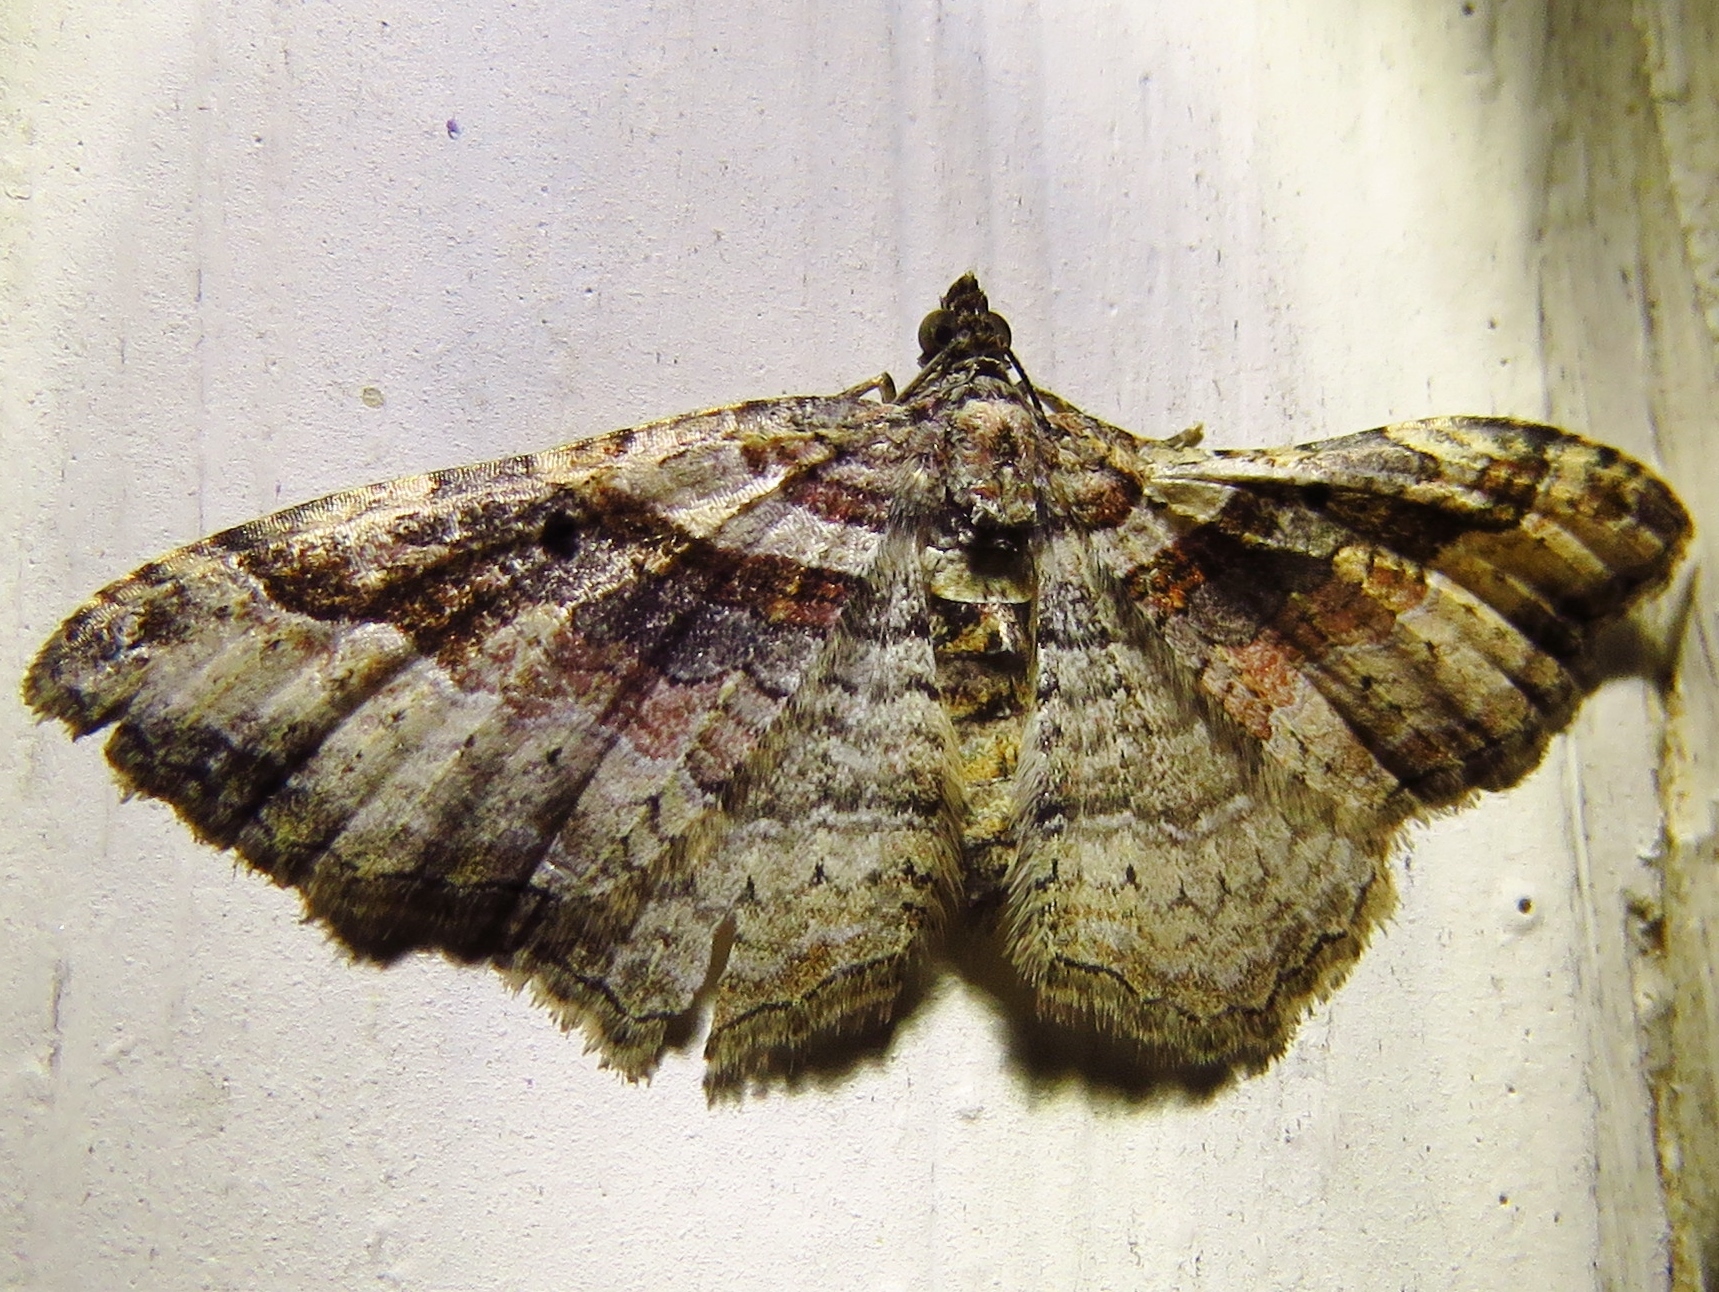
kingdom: Animalia
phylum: Arthropoda
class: Insecta
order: Lepidoptera
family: Geometridae
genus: Costaconvexa
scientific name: Costaconvexa centrostrigaria
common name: Bent-line carpet
